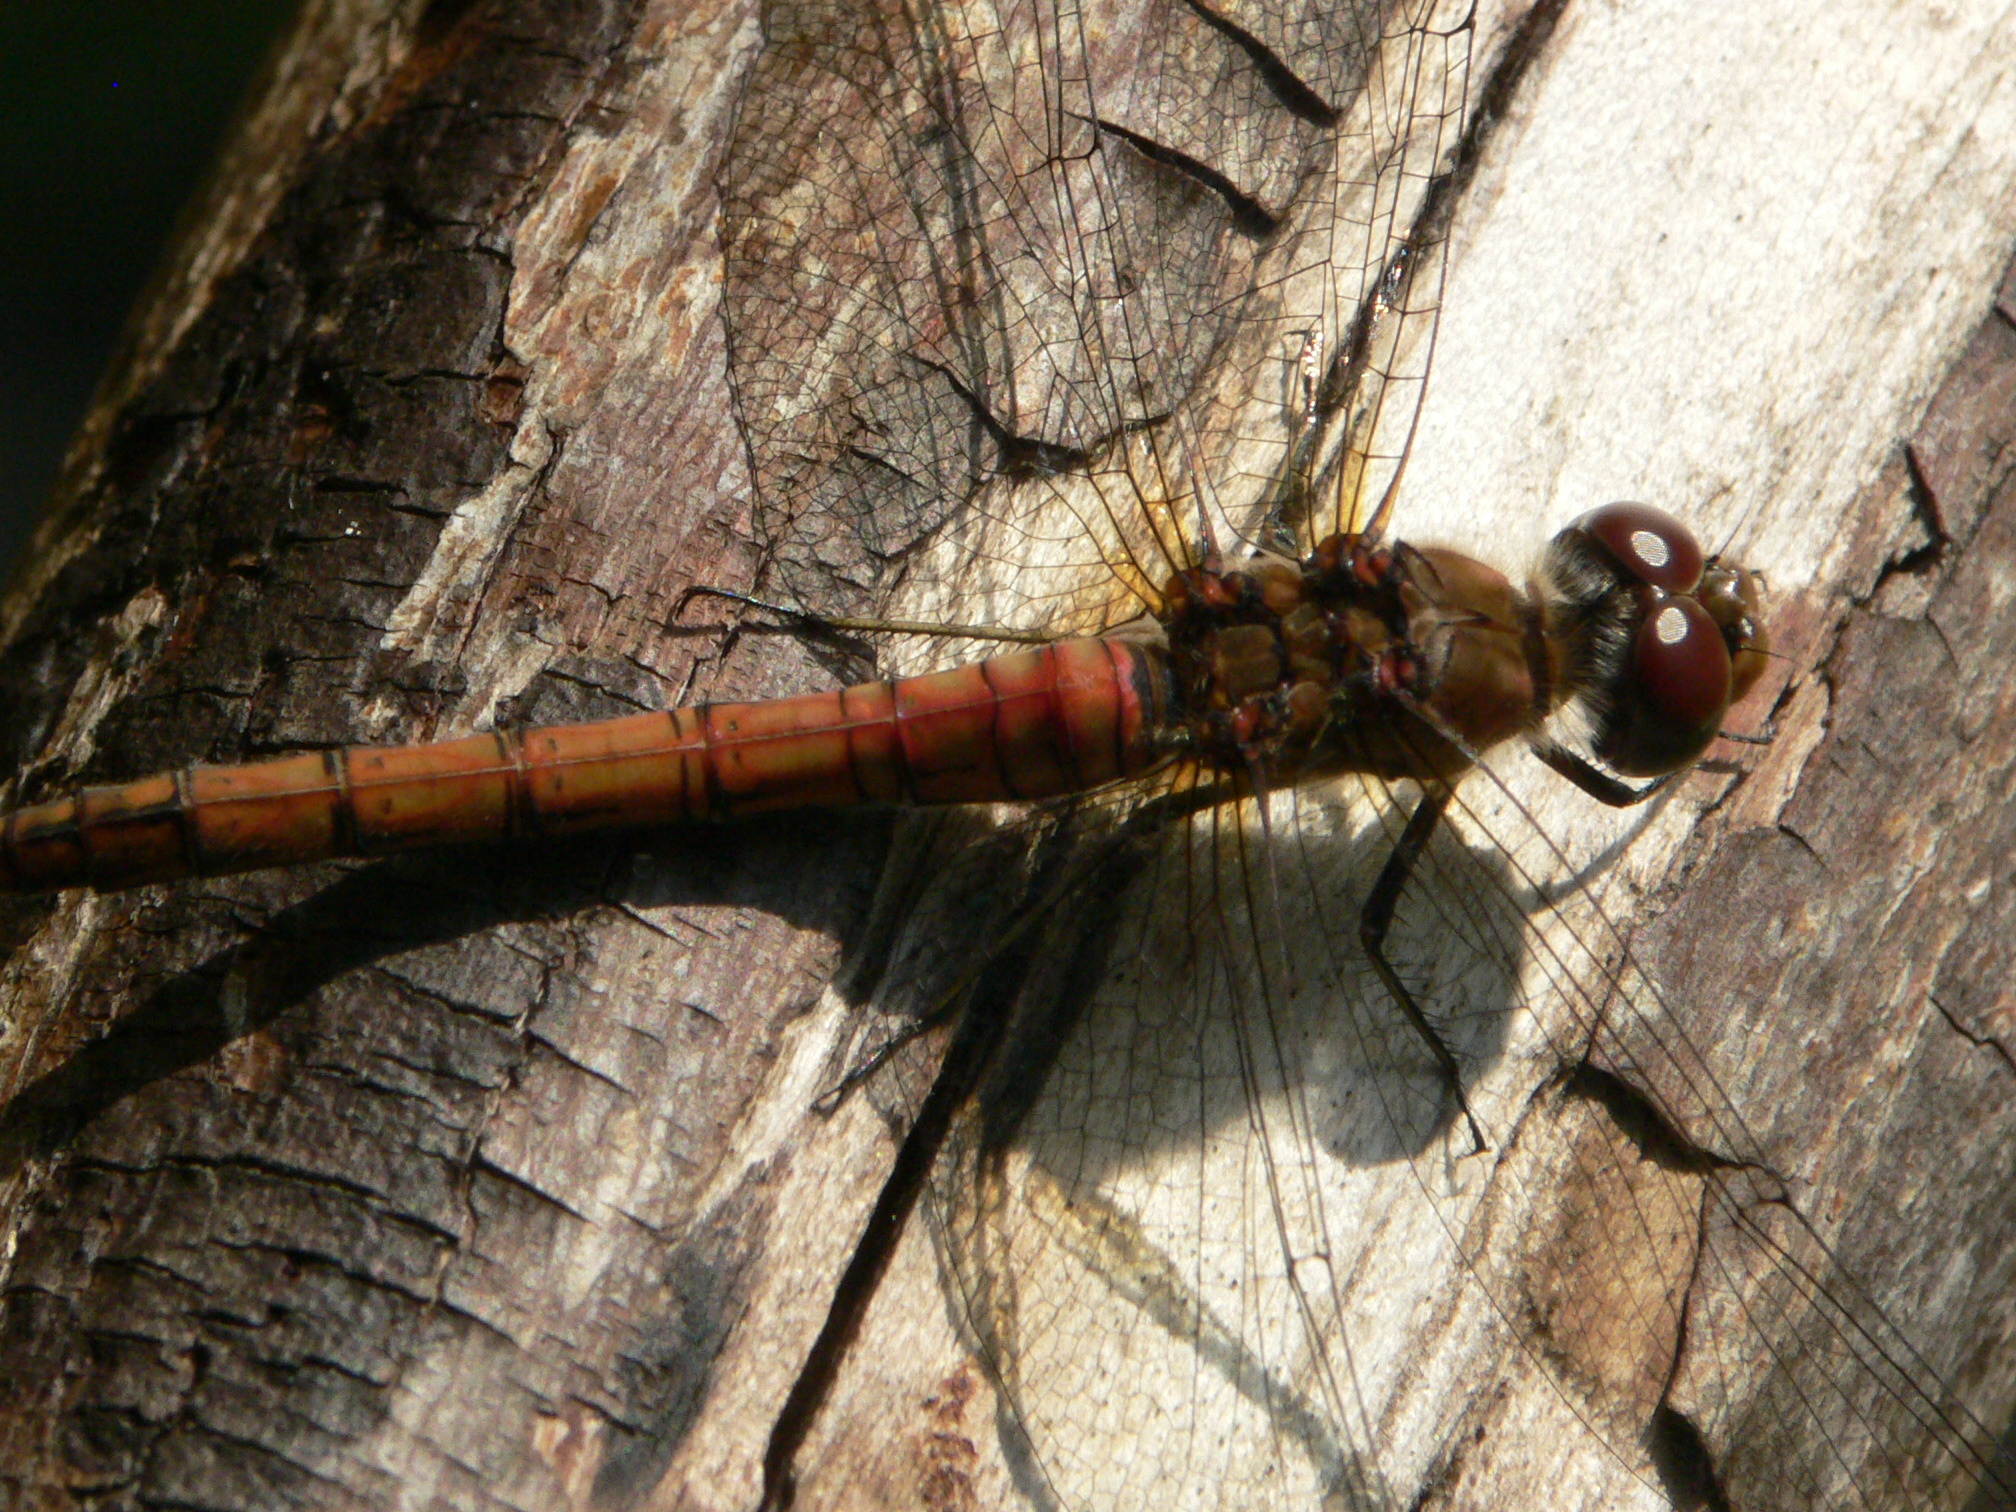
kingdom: Animalia
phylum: Arthropoda
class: Insecta
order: Odonata
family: Libellulidae
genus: Sympetrum
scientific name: Sympetrum striolatum
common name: Common darter
